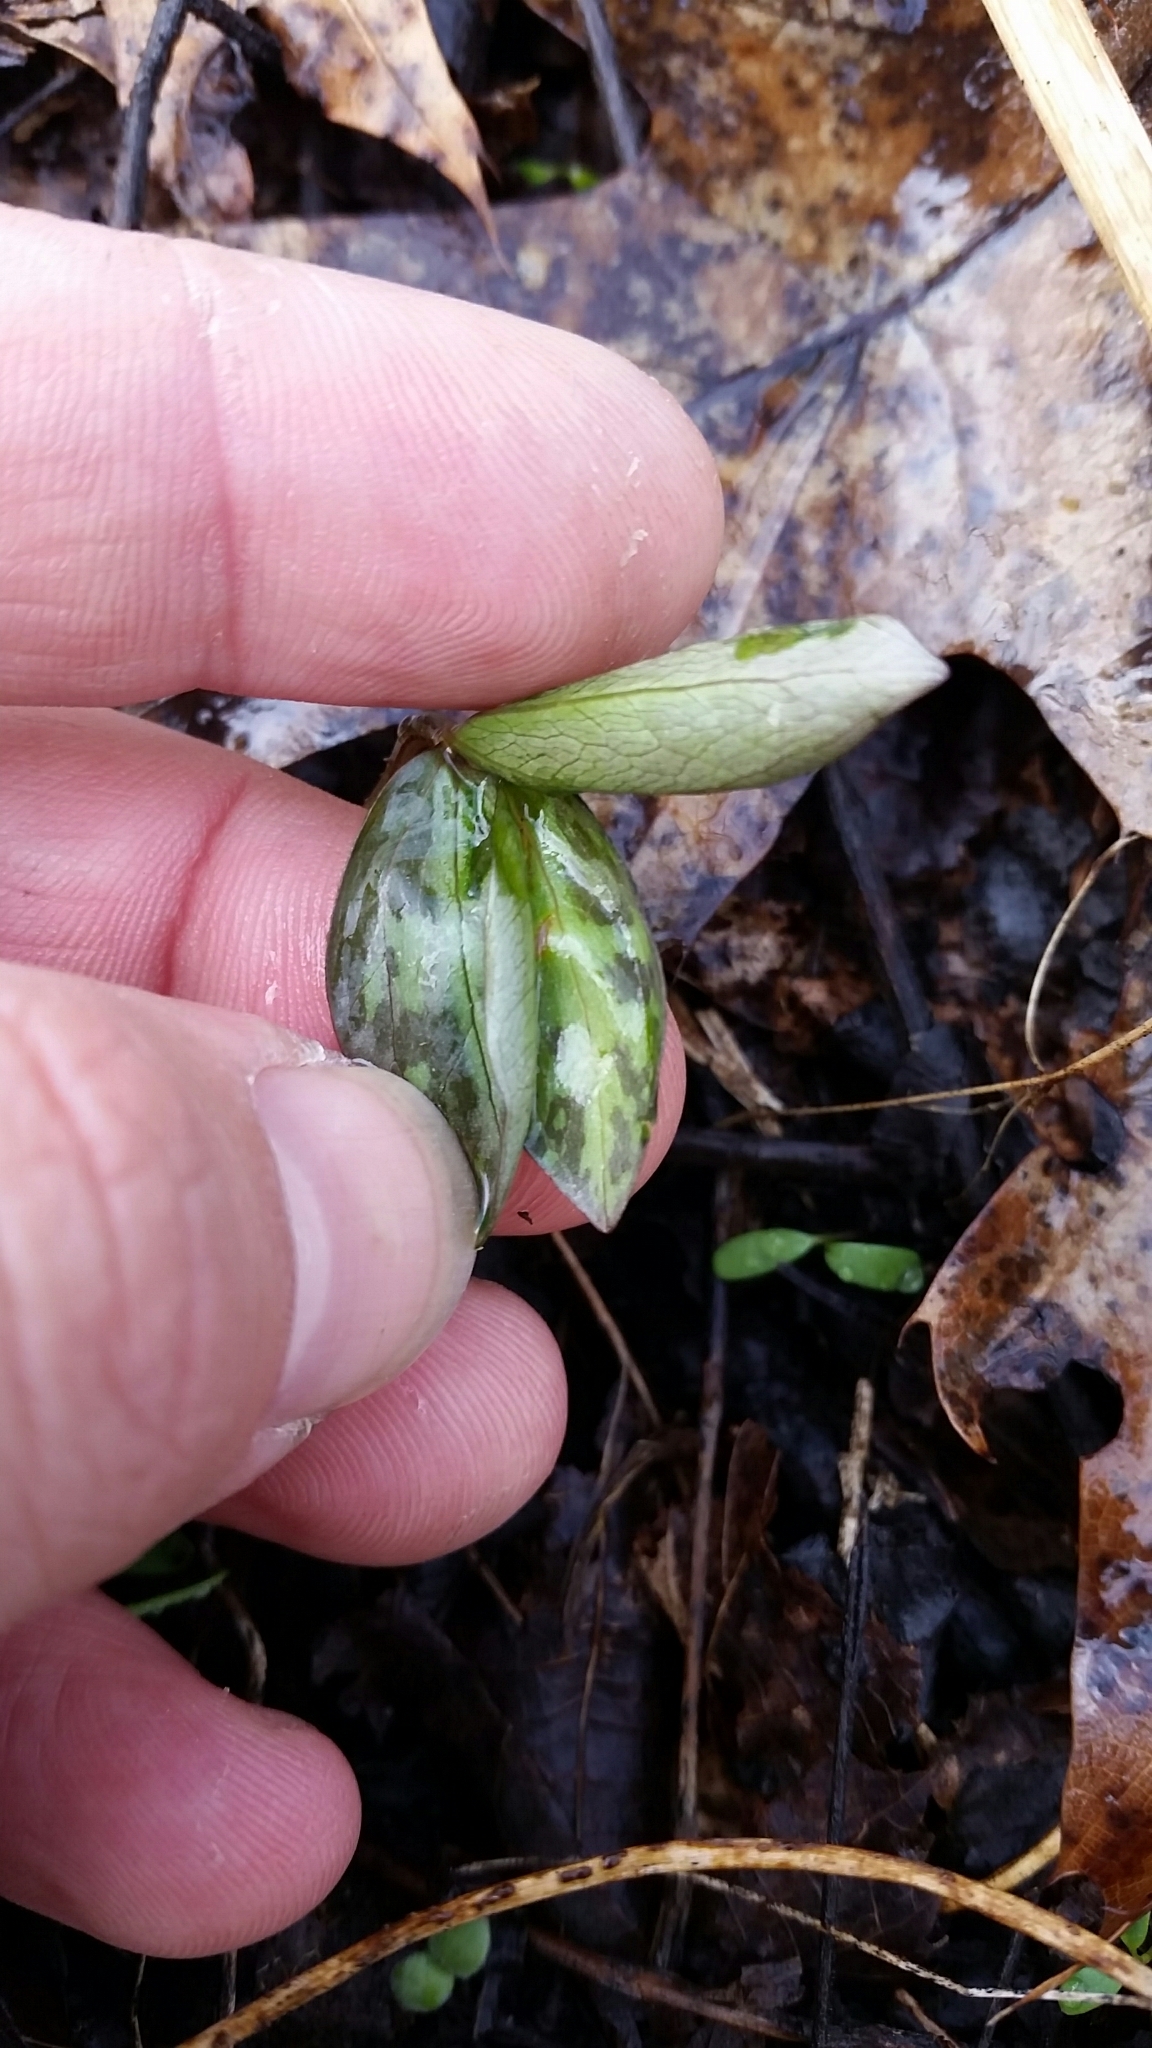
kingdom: Plantae
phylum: Tracheophyta
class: Liliopsida
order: Liliales
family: Melanthiaceae
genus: Trillium
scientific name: Trillium recurvatum
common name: Bloody butcher
